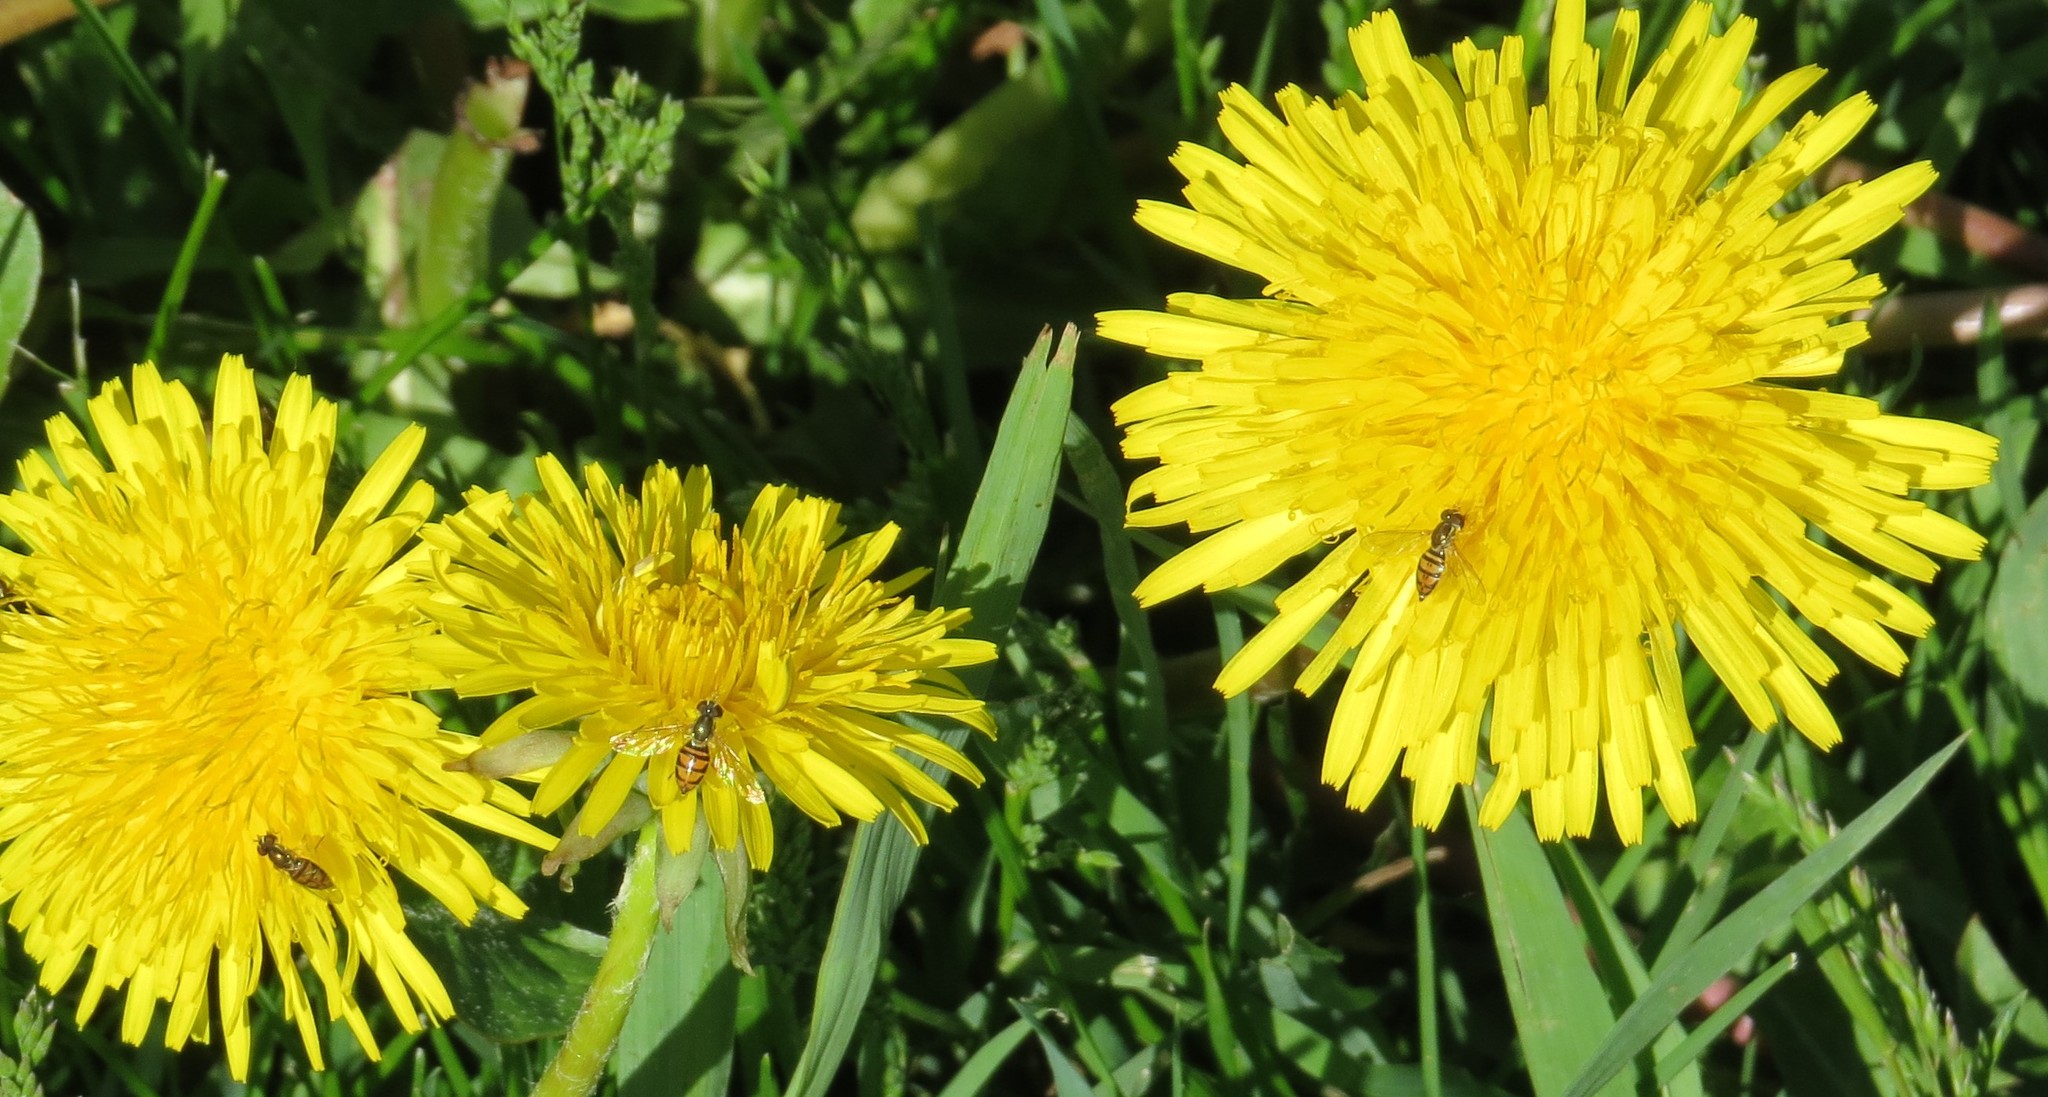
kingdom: Animalia
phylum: Arthropoda
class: Insecta
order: Diptera
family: Syrphidae
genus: Toxomerus
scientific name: Toxomerus marginatus
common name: Syrphid fly
